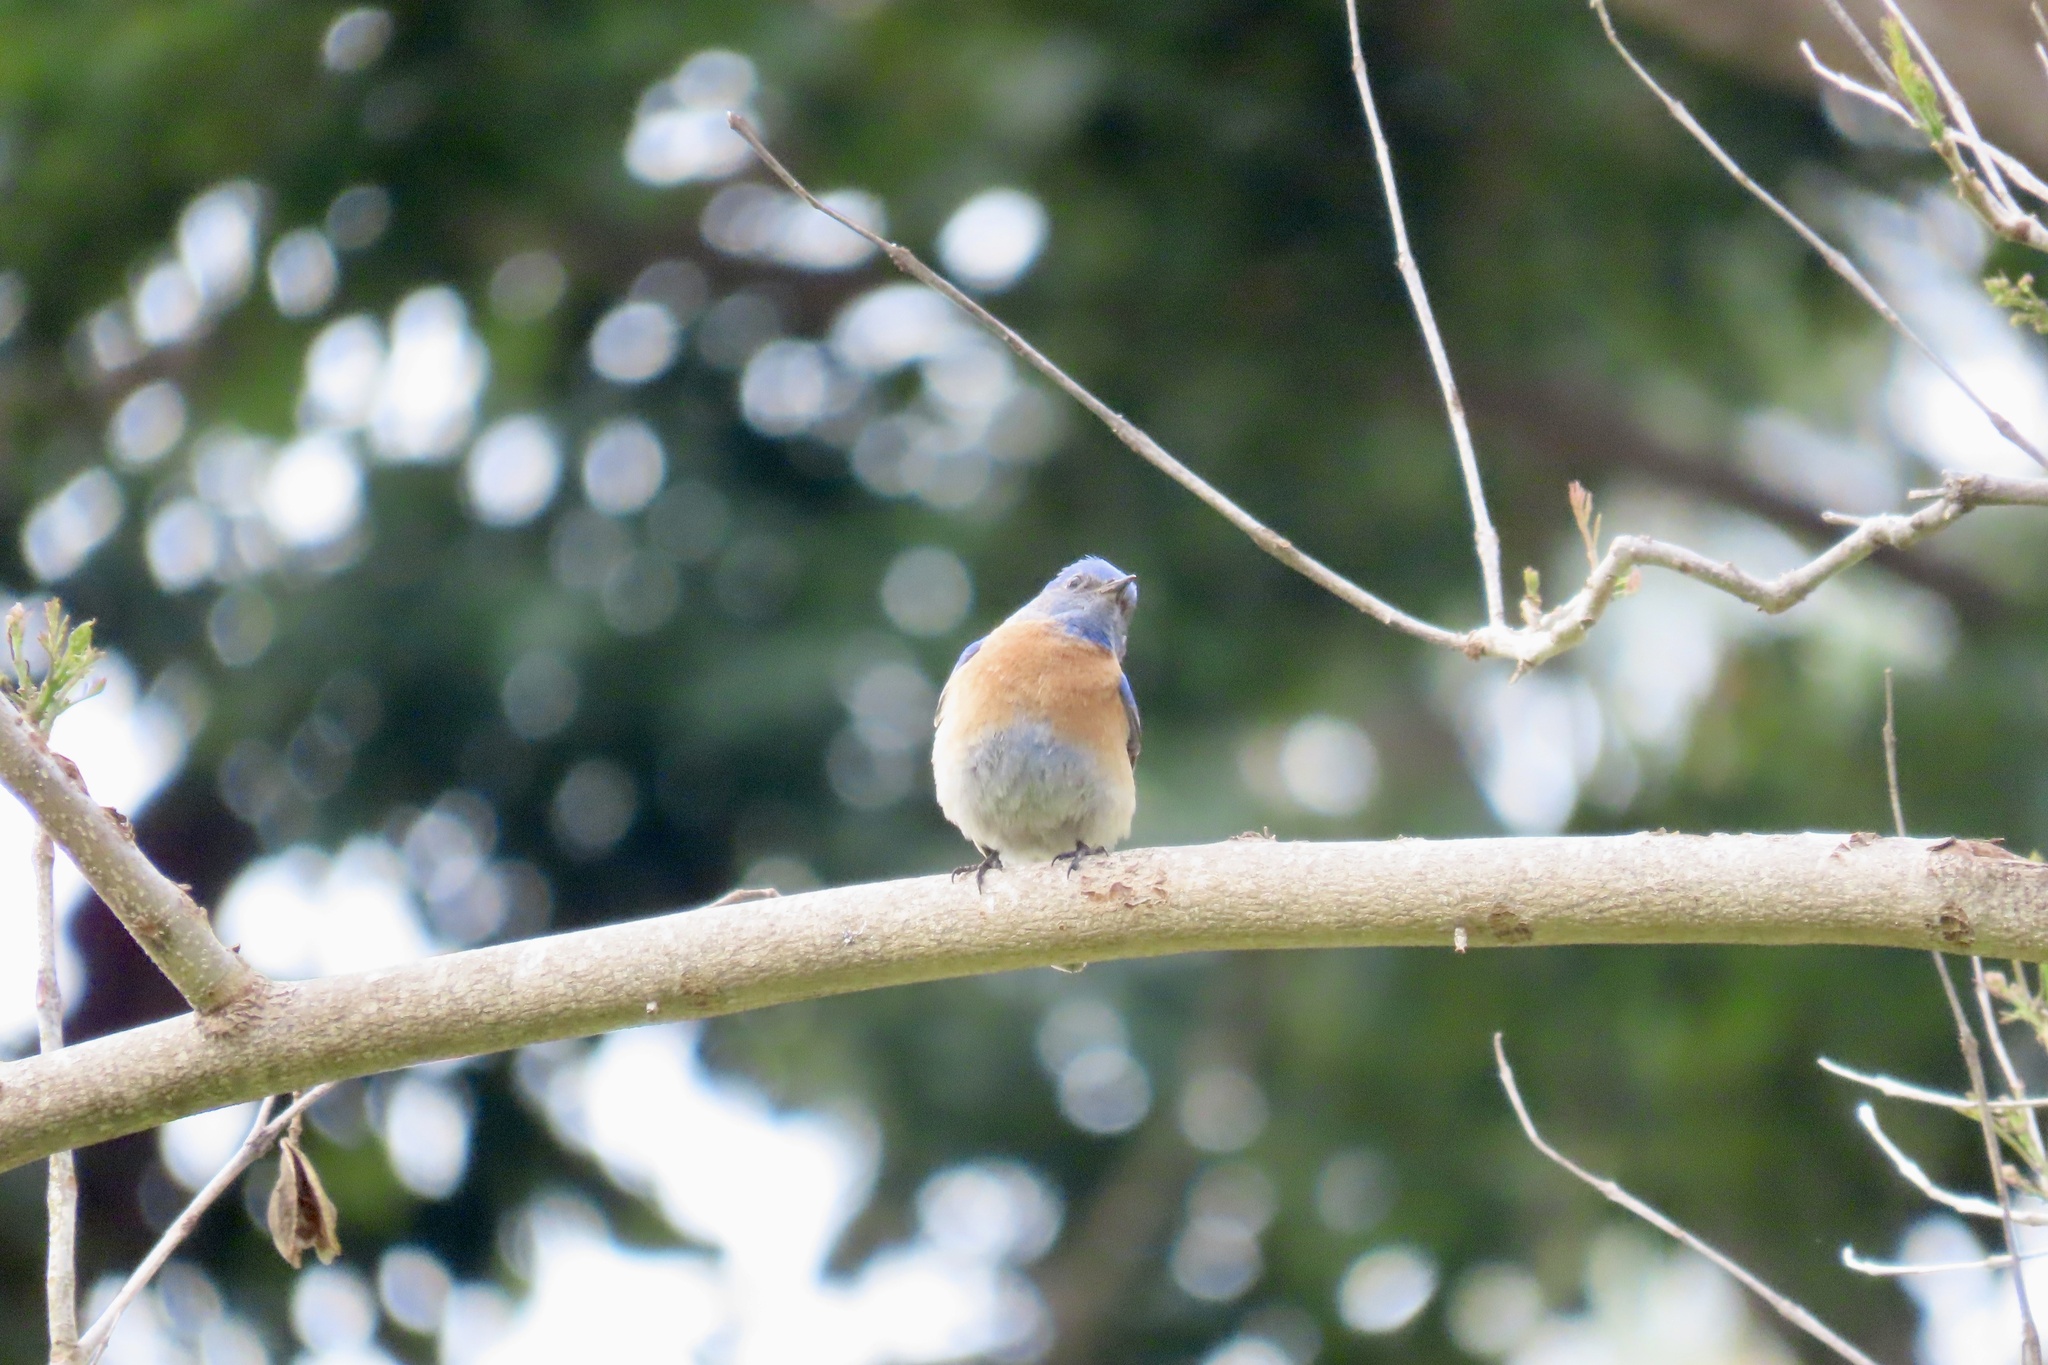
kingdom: Animalia
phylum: Chordata
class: Aves
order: Passeriformes
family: Turdidae
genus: Sialia
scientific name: Sialia mexicana
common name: Western bluebird
